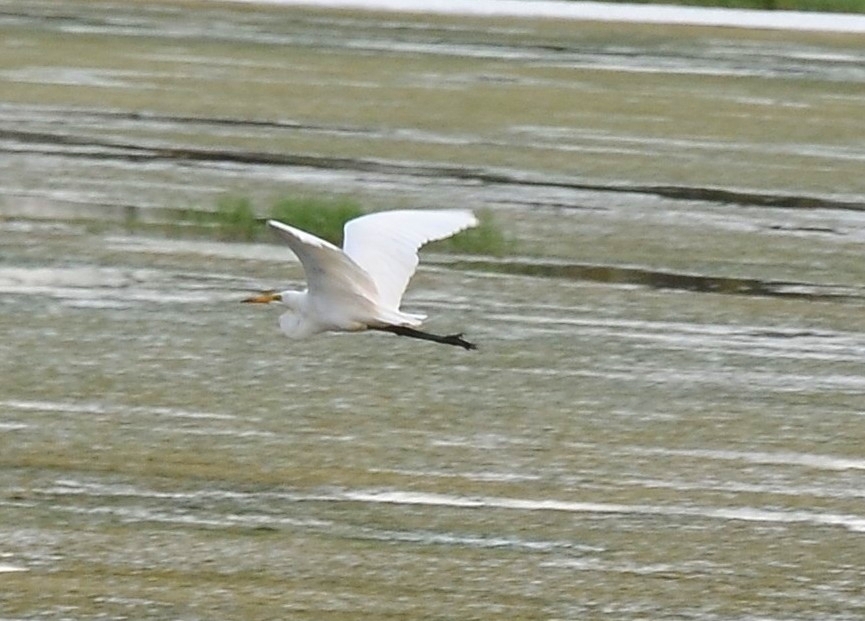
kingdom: Animalia
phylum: Chordata
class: Aves
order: Pelecaniformes
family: Ardeidae
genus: Egretta
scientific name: Egretta intermedia
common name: Intermediate egret
